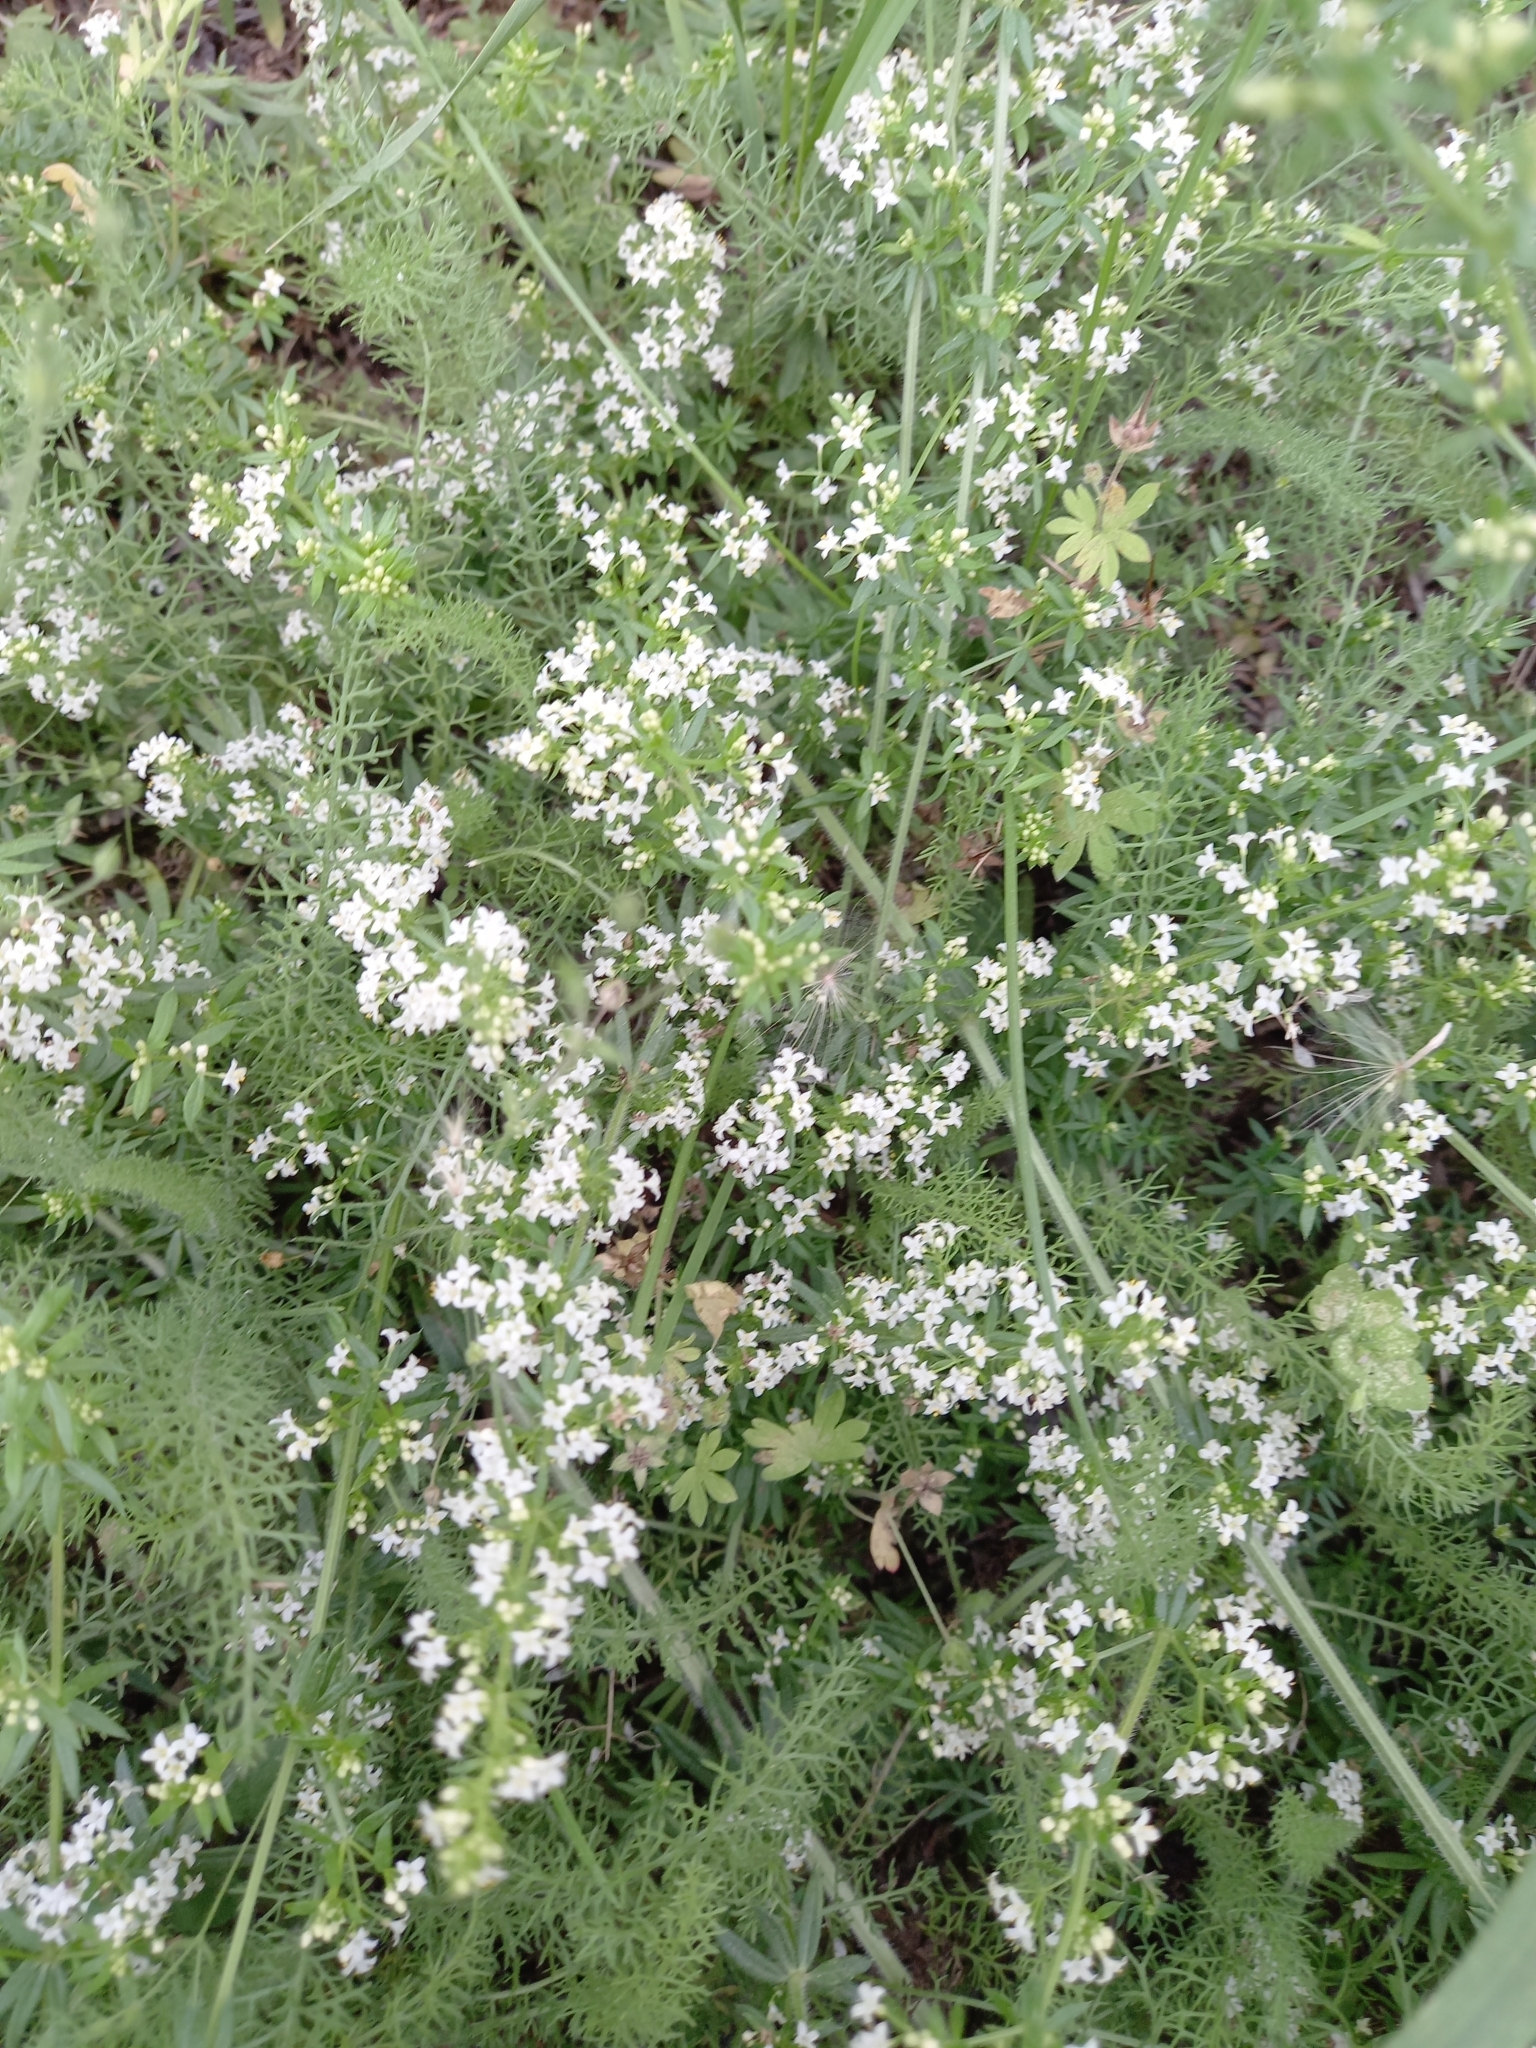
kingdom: Plantae
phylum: Tracheophyta
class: Magnoliopsida
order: Gentianales
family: Rubiaceae
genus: Galium
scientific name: Galium humifusum
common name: Spreading bedstraw
